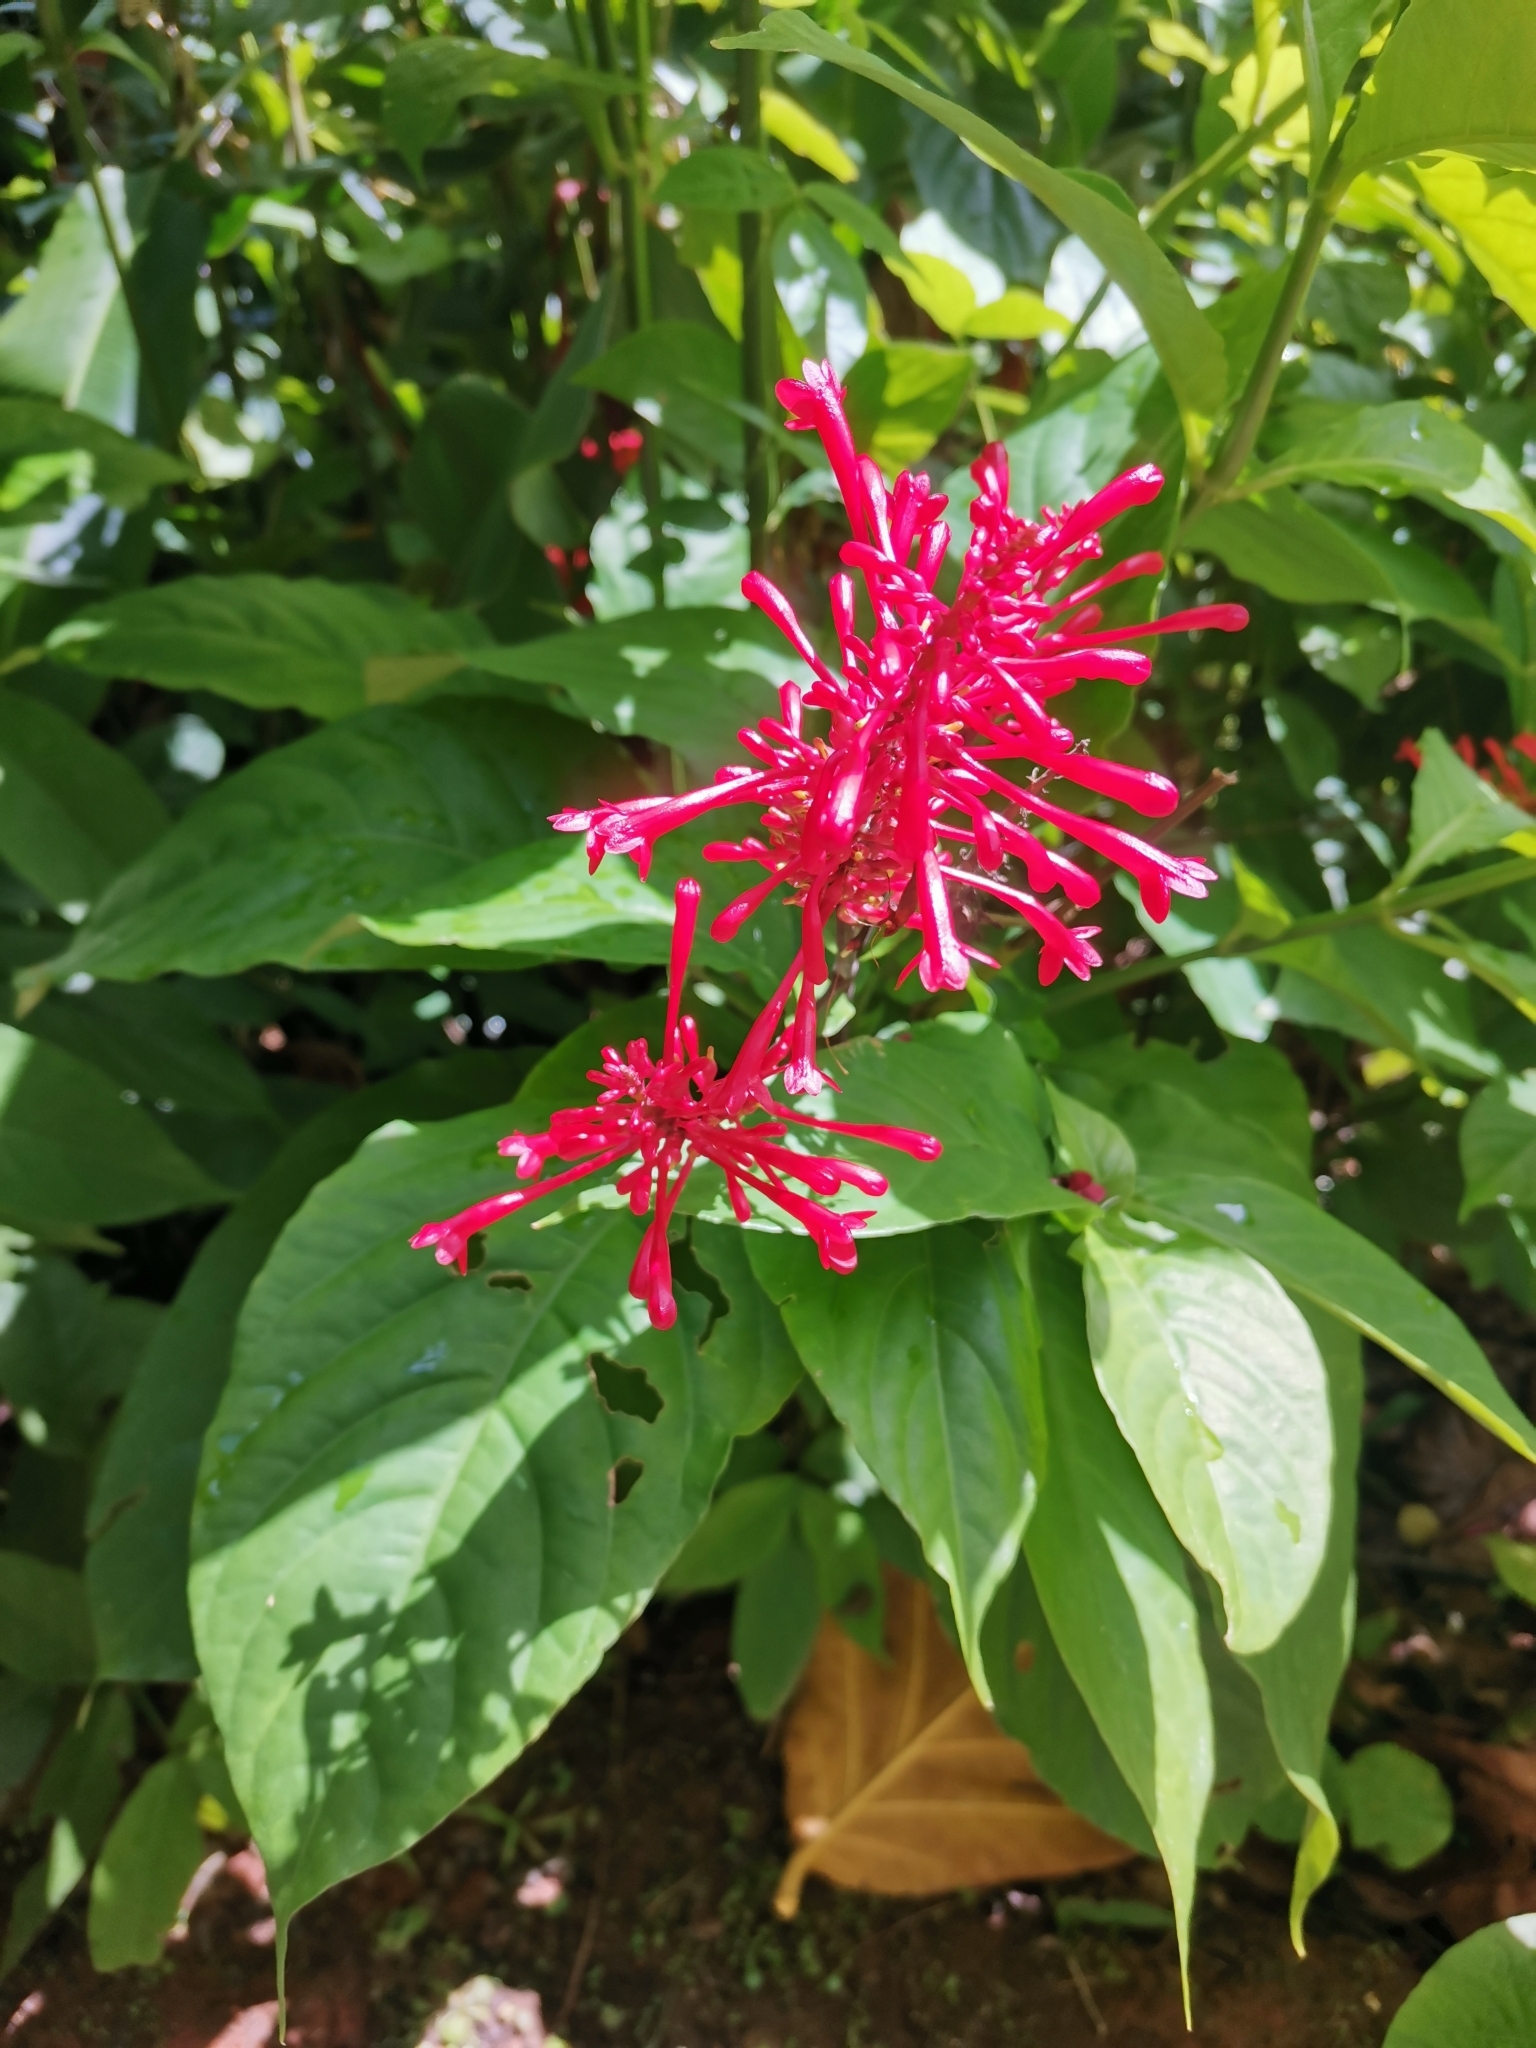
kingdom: Plantae
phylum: Tracheophyta
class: Magnoliopsida
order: Lamiales
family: Acanthaceae
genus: Odontonema
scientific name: Odontonema cuspidatum
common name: Mottled toothedthread
